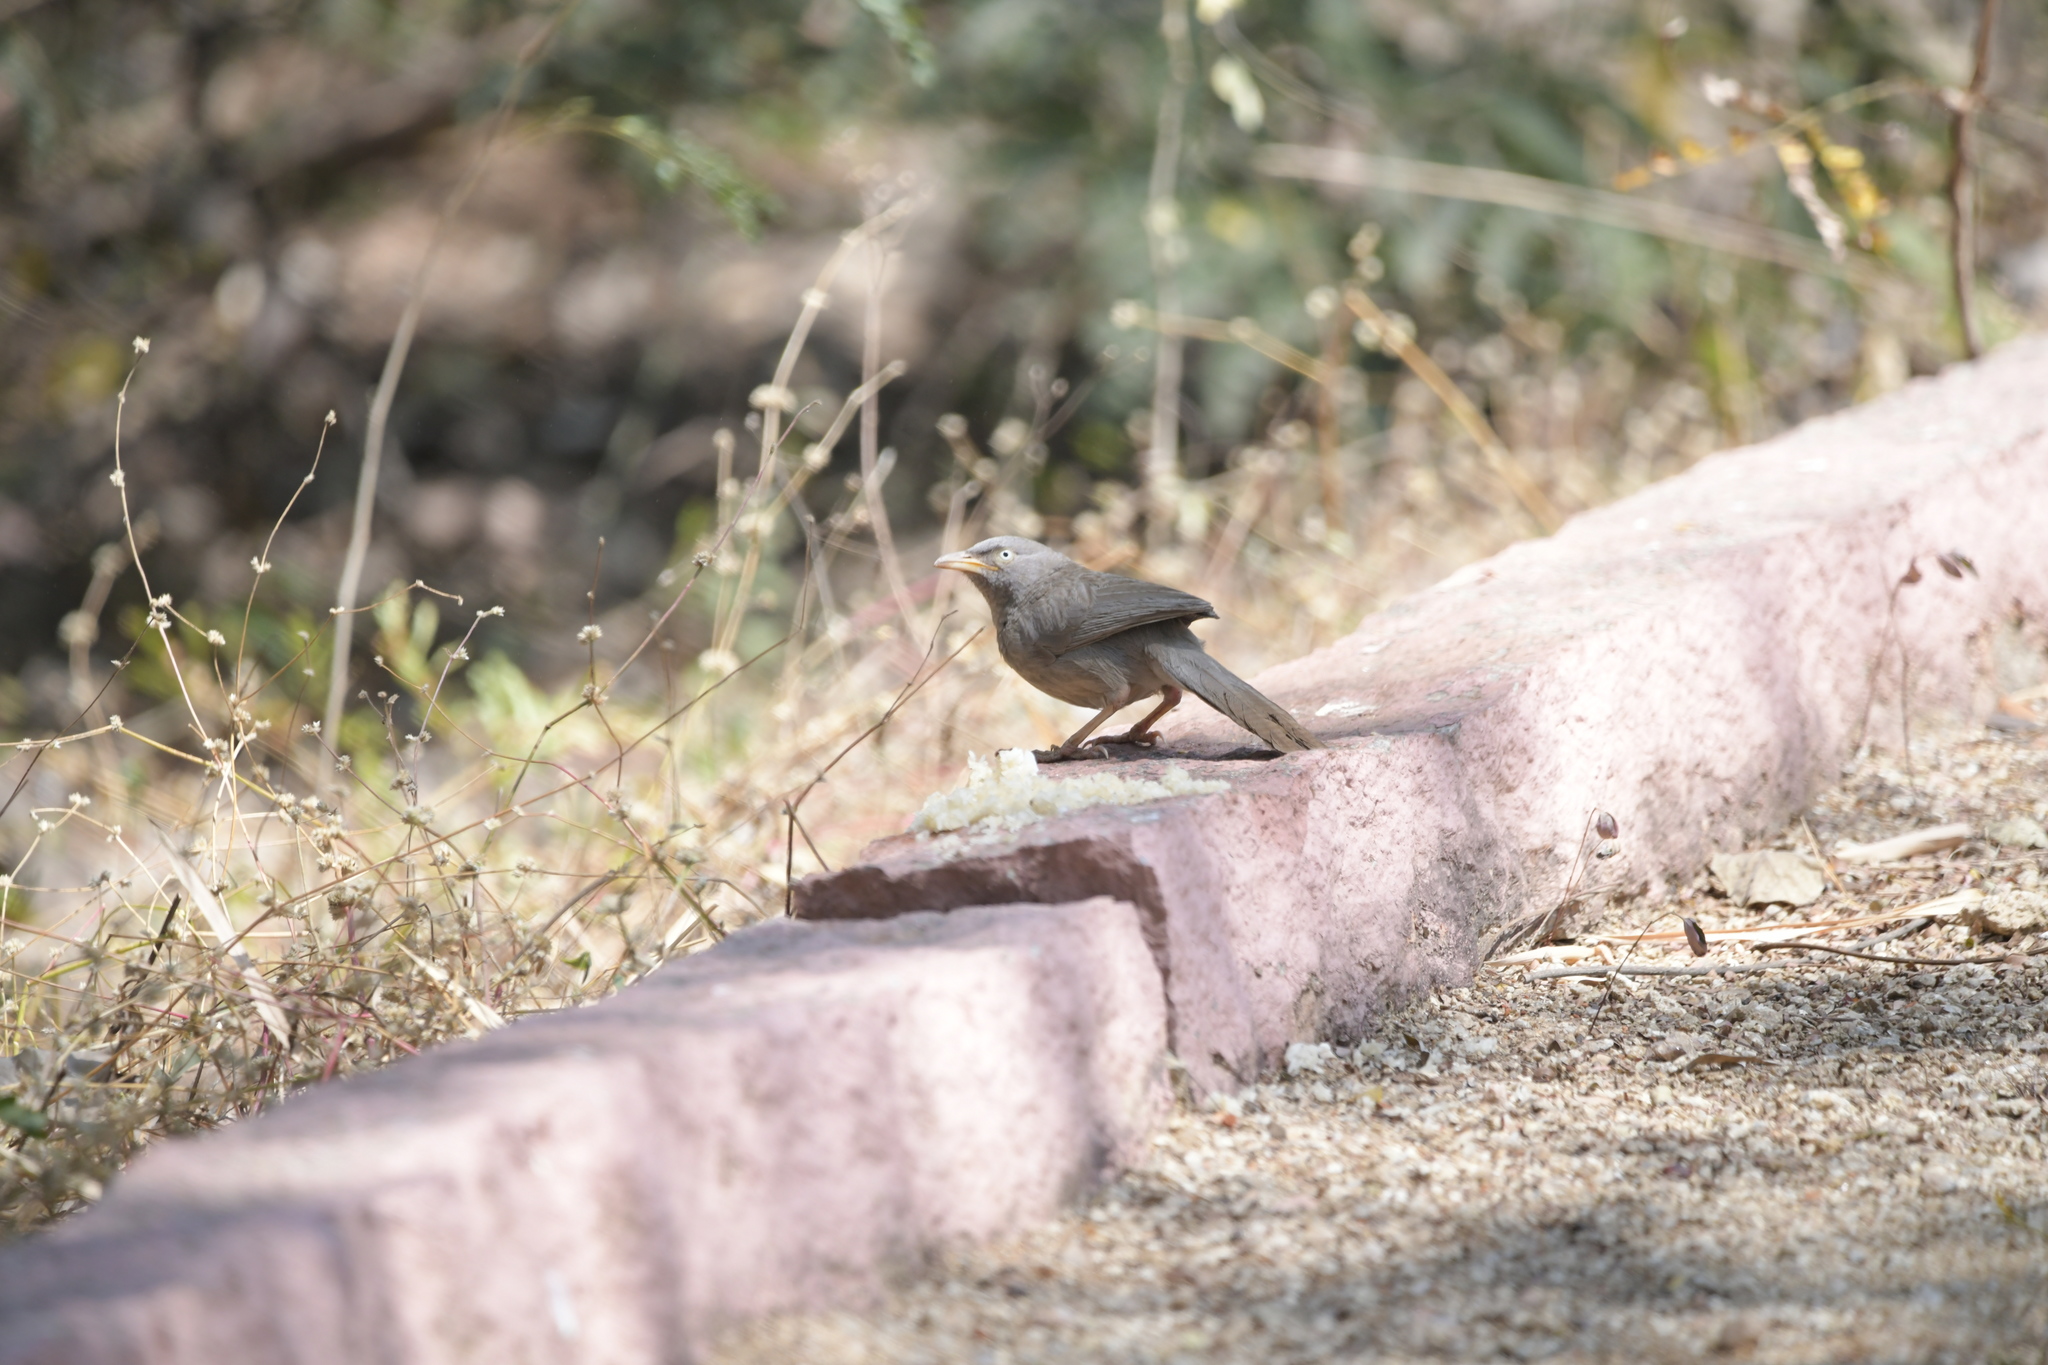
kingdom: Animalia
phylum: Chordata
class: Aves
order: Passeriformes
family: Leiothrichidae
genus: Turdoides
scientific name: Turdoides striata
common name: Jungle babbler
